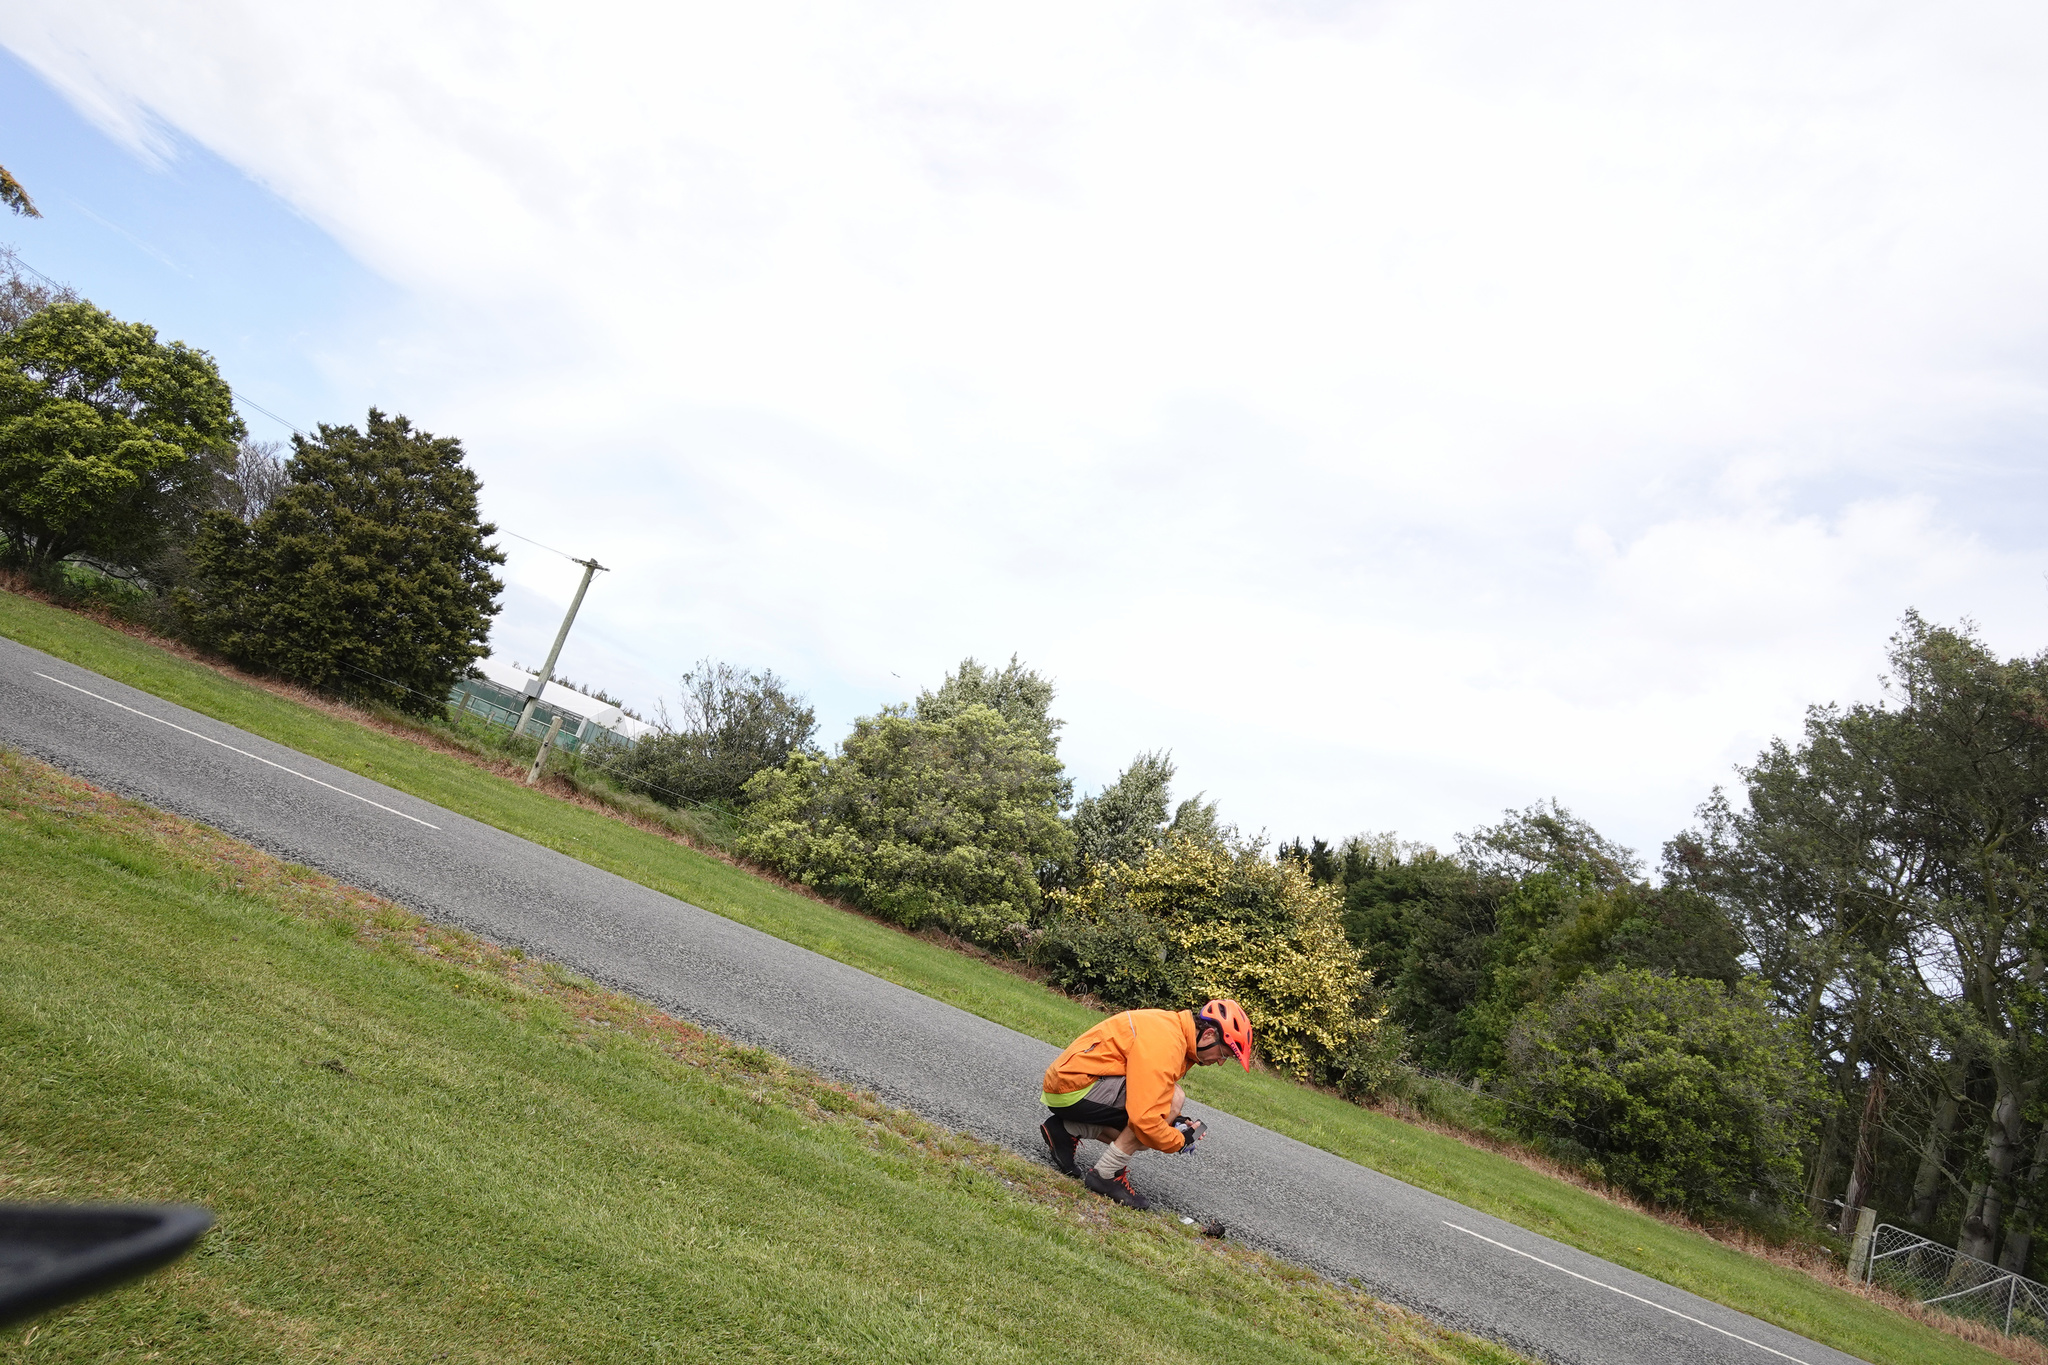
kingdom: Animalia
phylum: Chordata
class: Aves
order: Passeriformes
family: Turdidae
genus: Turdus
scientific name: Turdus merula
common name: Common blackbird
